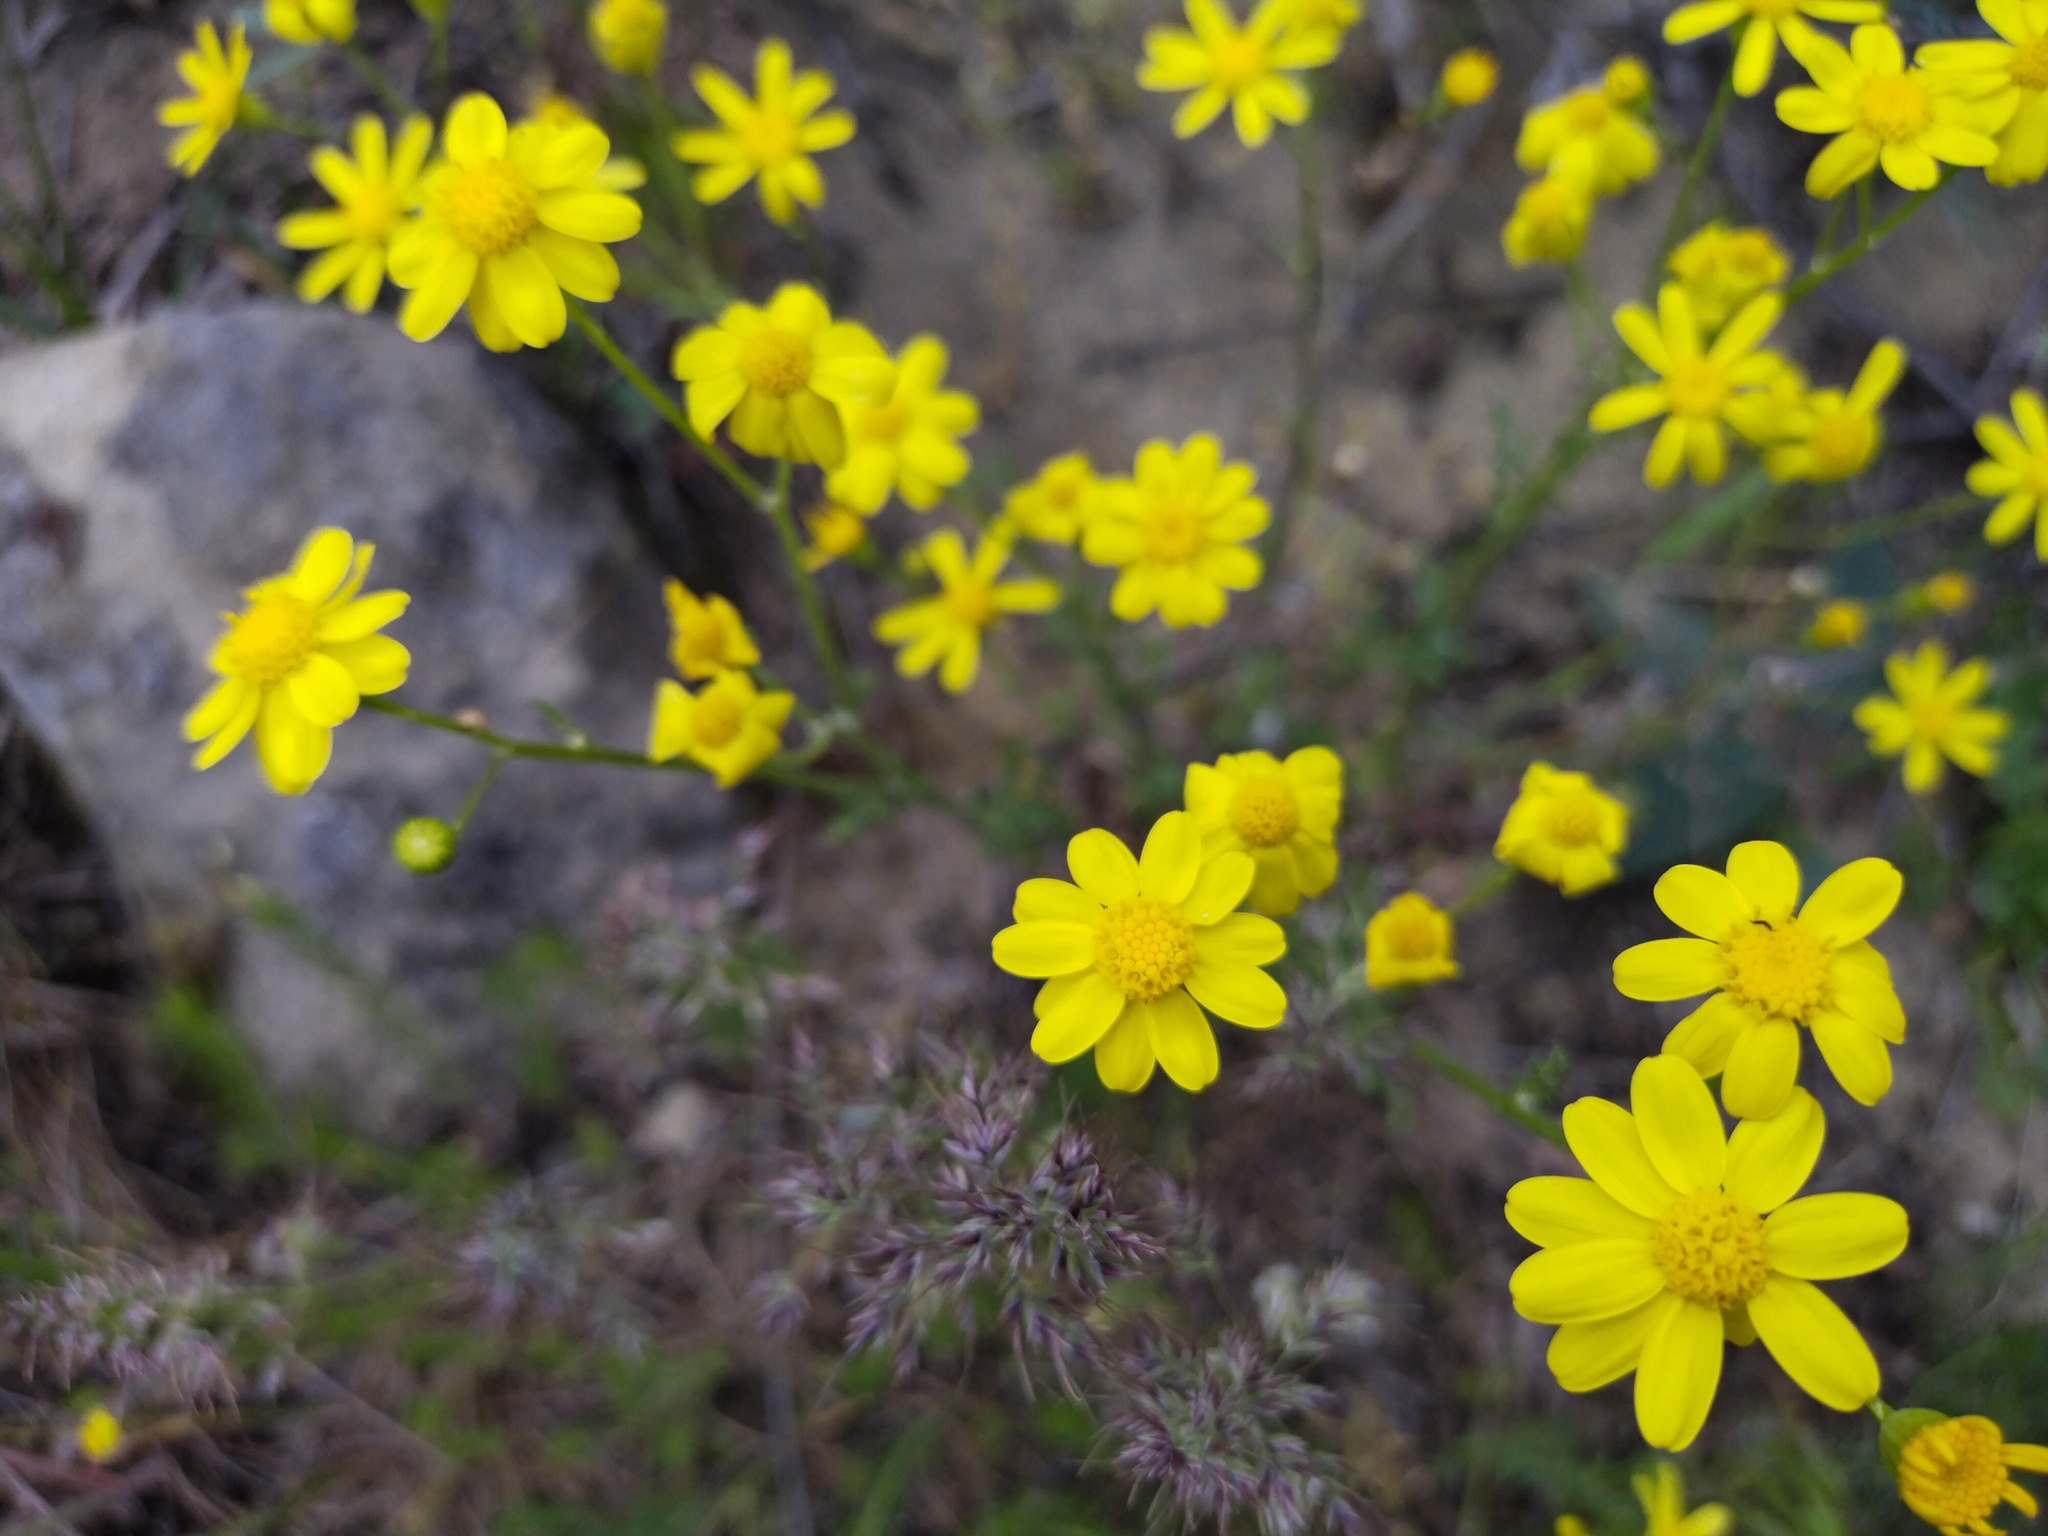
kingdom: Plantae
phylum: Tracheophyta
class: Magnoliopsida
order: Asterales
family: Asteraceae
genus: Senecio
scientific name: Senecio vernalis
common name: Eastern groundsel
